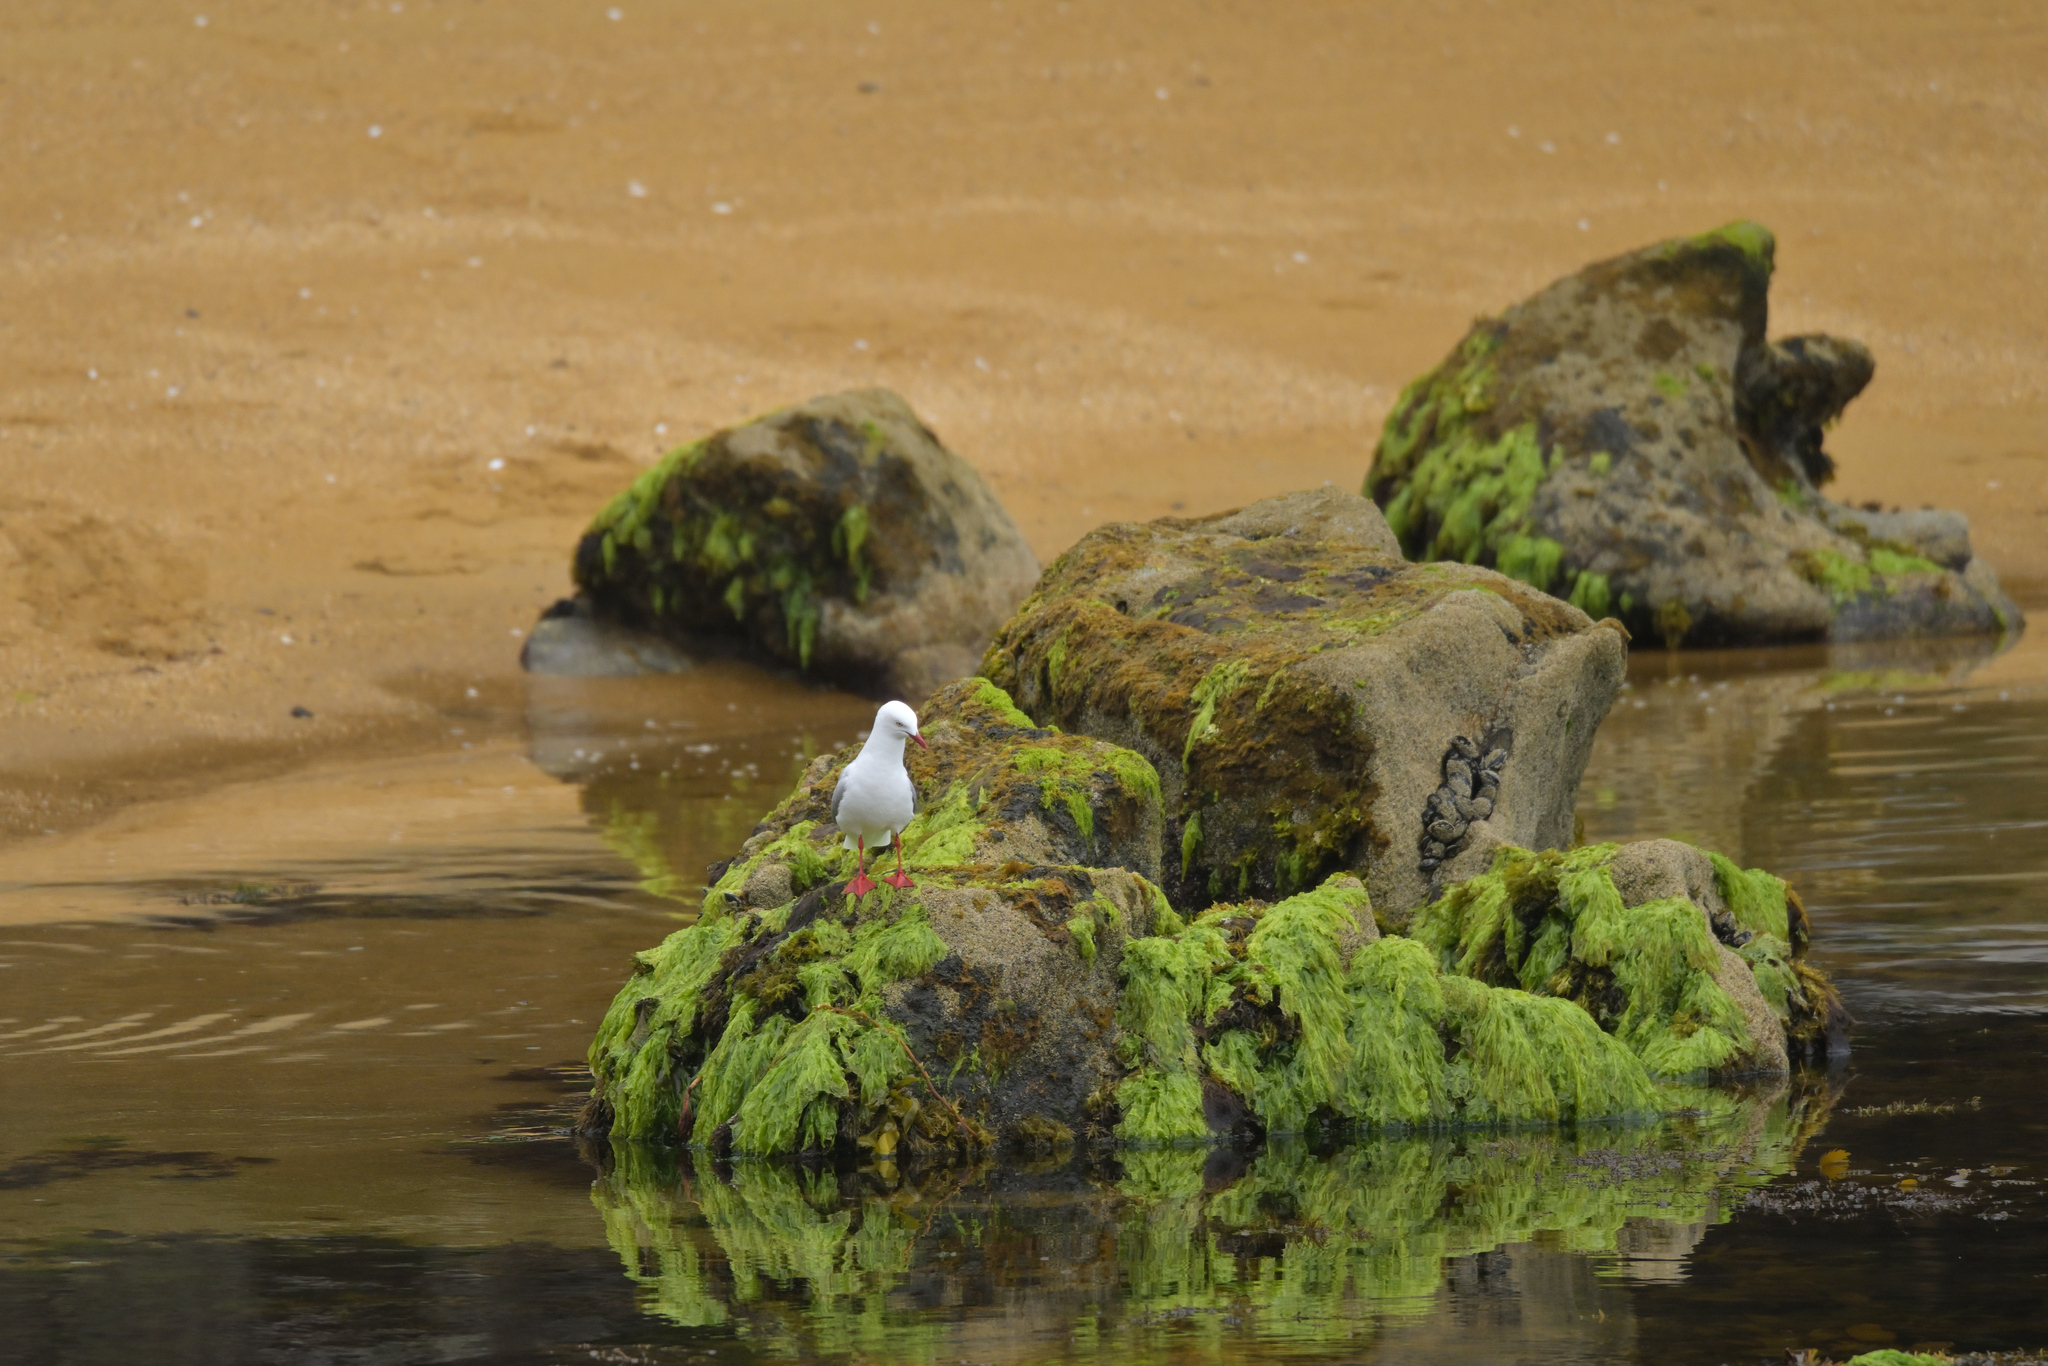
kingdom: Animalia
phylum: Chordata
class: Aves
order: Charadriiformes
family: Laridae
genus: Chroicocephalus
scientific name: Chroicocephalus novaehollandiae
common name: Silver gull
